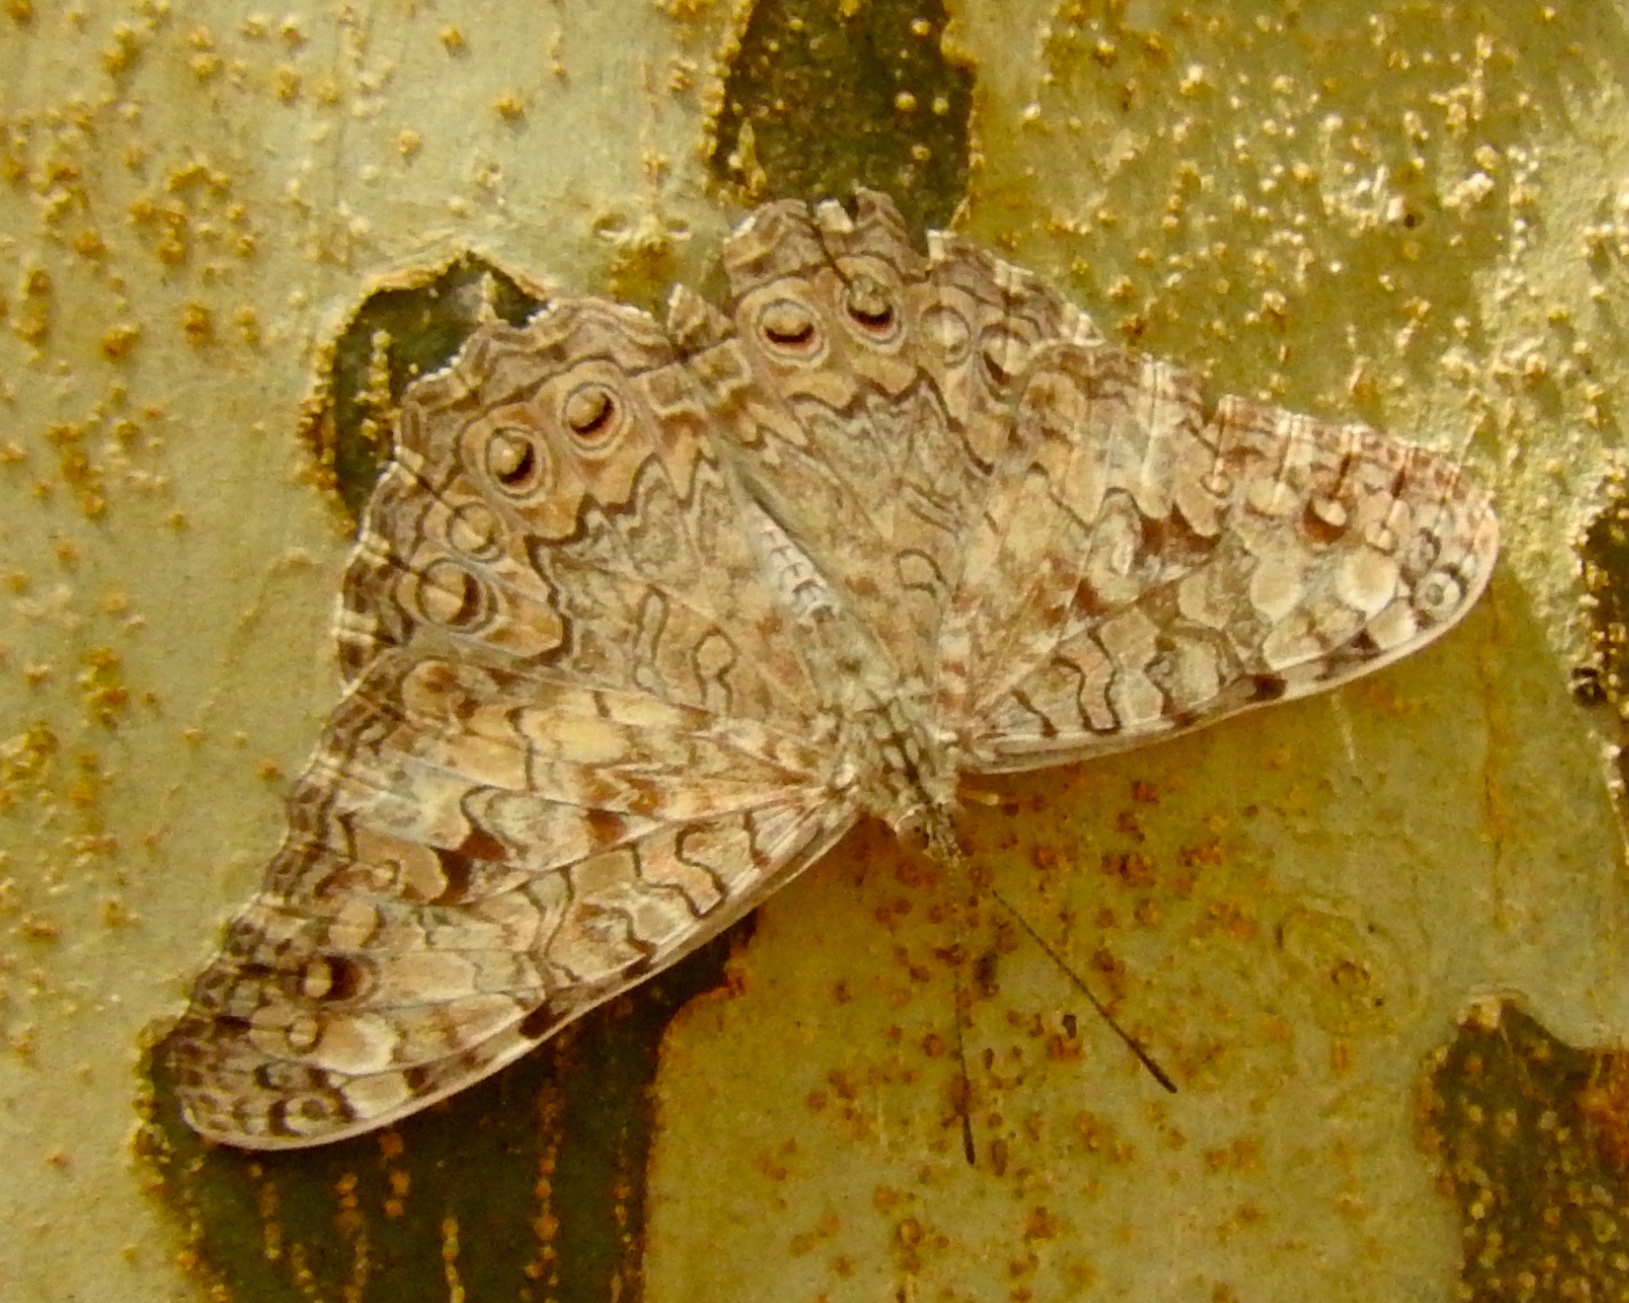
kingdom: Animalia
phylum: Arthropoda
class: Insecta
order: Lepidoptera
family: Nymphalidae
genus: Hamadryas
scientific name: Hamadryas februa
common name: Gray cracker
